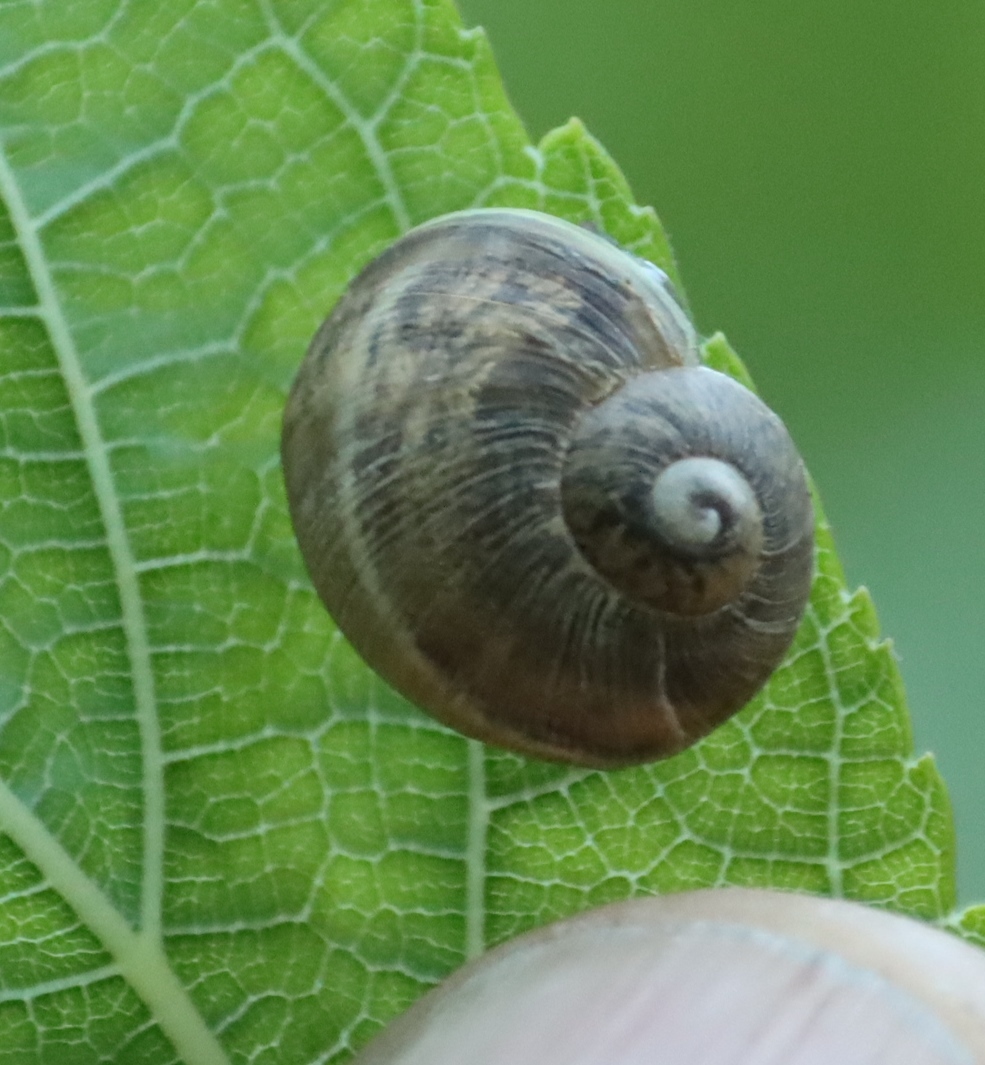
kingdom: Animalia
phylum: Mollusca
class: Gastropoda
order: Stylommatophora
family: Helicidae
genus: Cornu
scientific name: Cornu aspersum
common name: Brown garden snail
